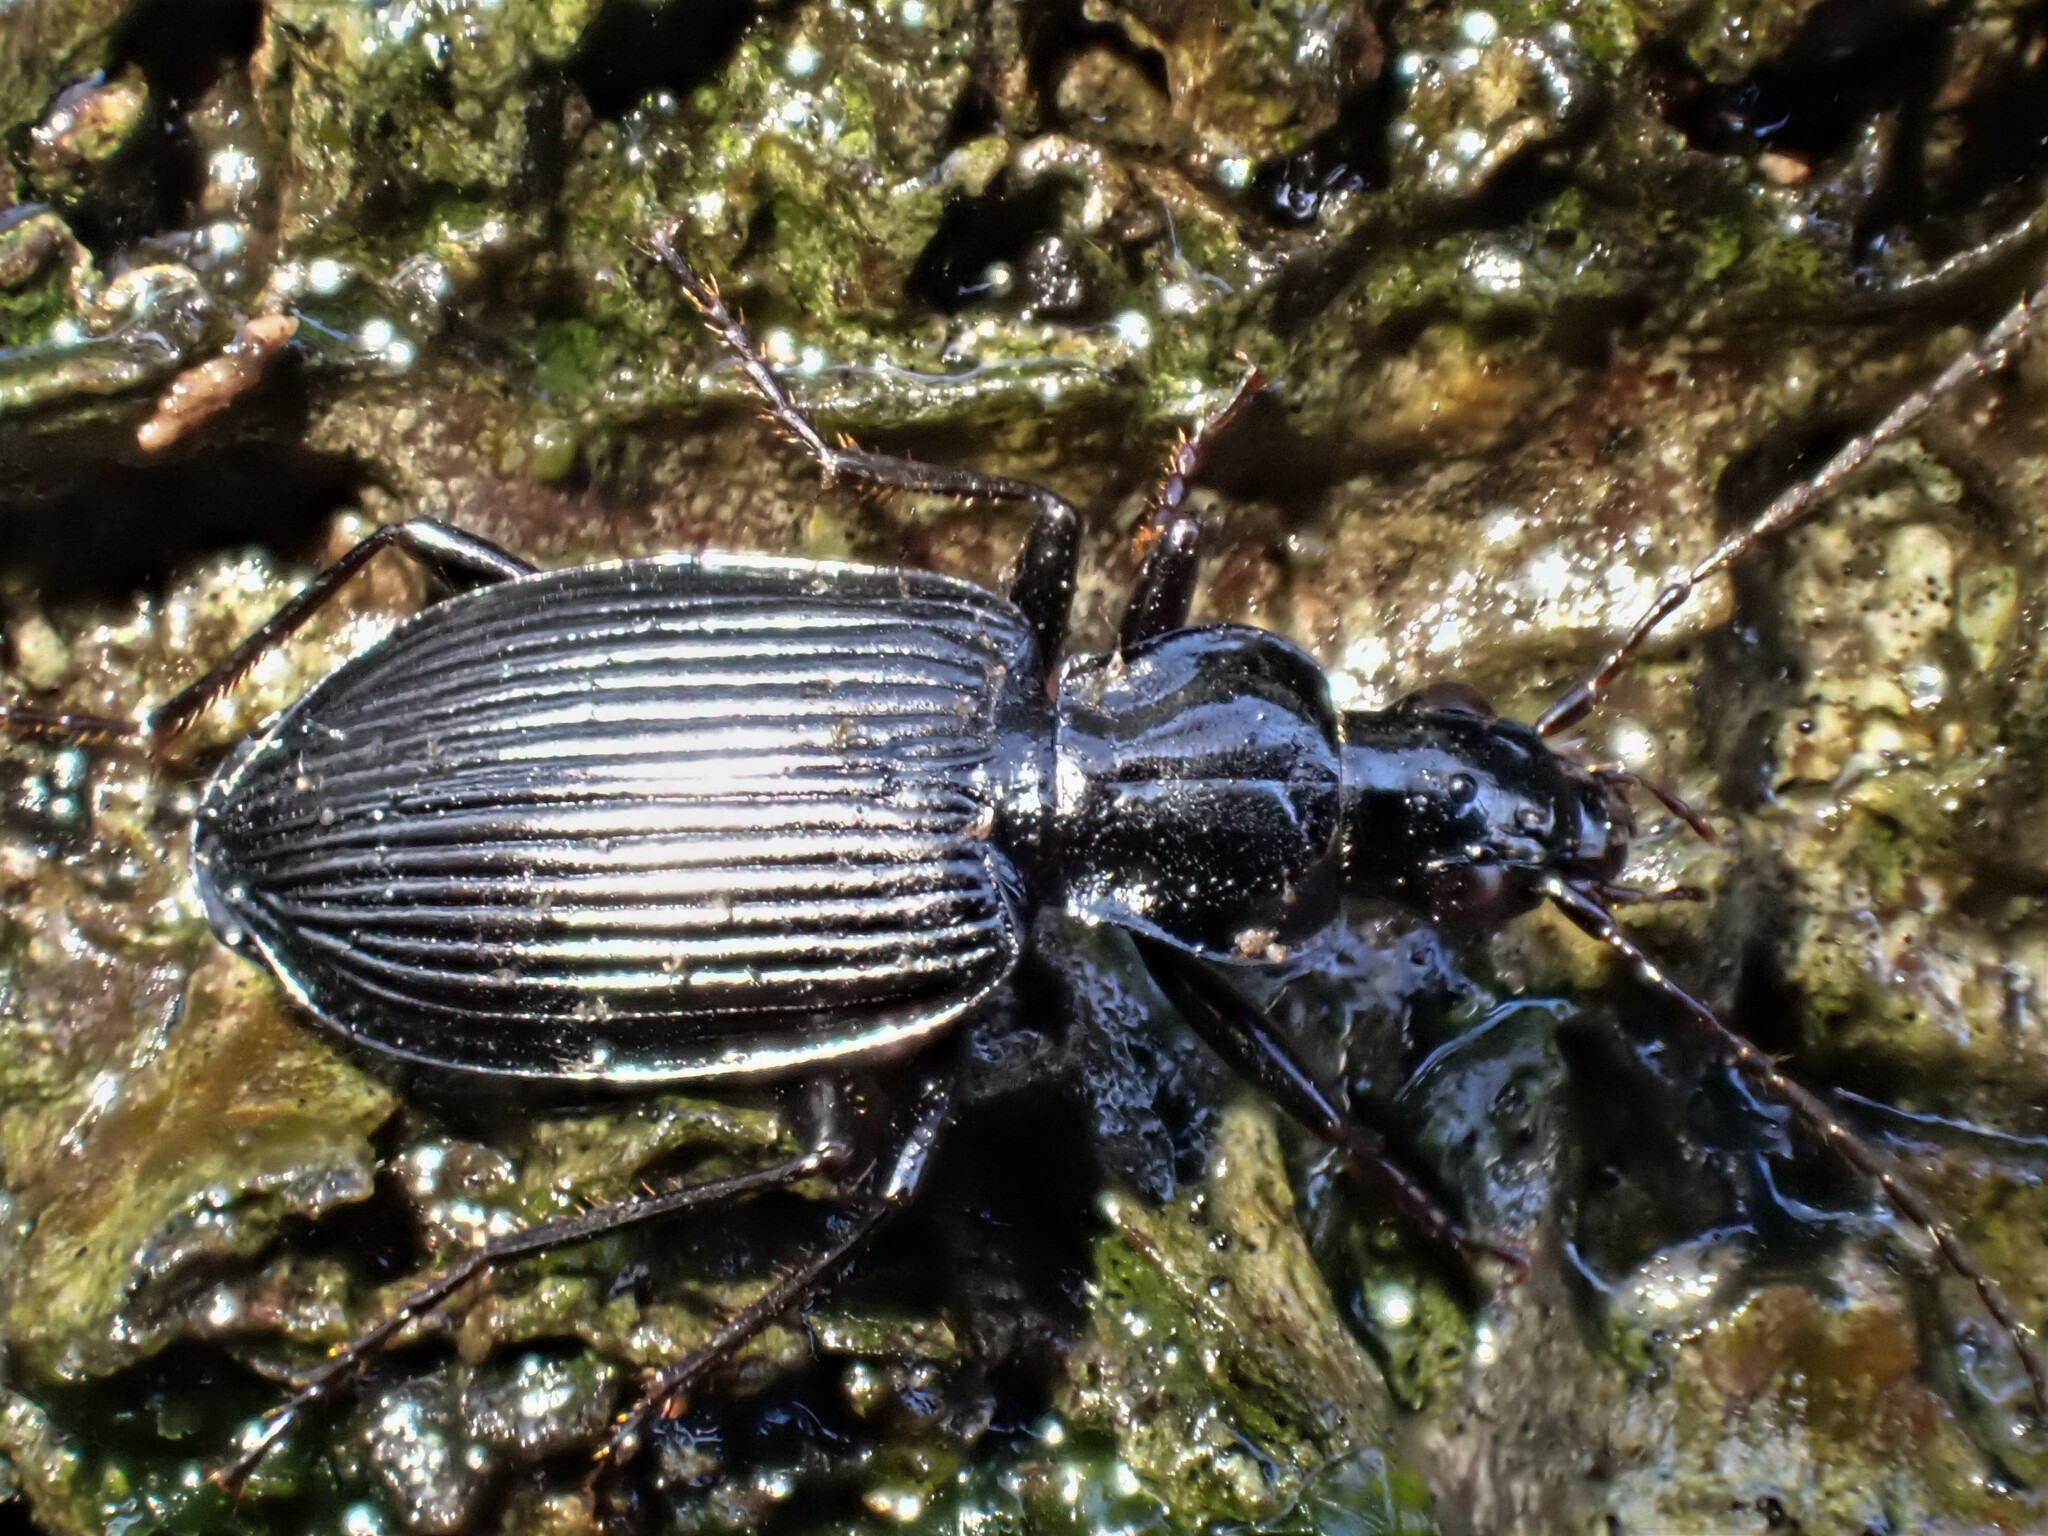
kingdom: Animalia
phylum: Arthropoda
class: Insecta
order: Coleoptera
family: Carabidae
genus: Platynus
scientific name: Platynus assimilis
